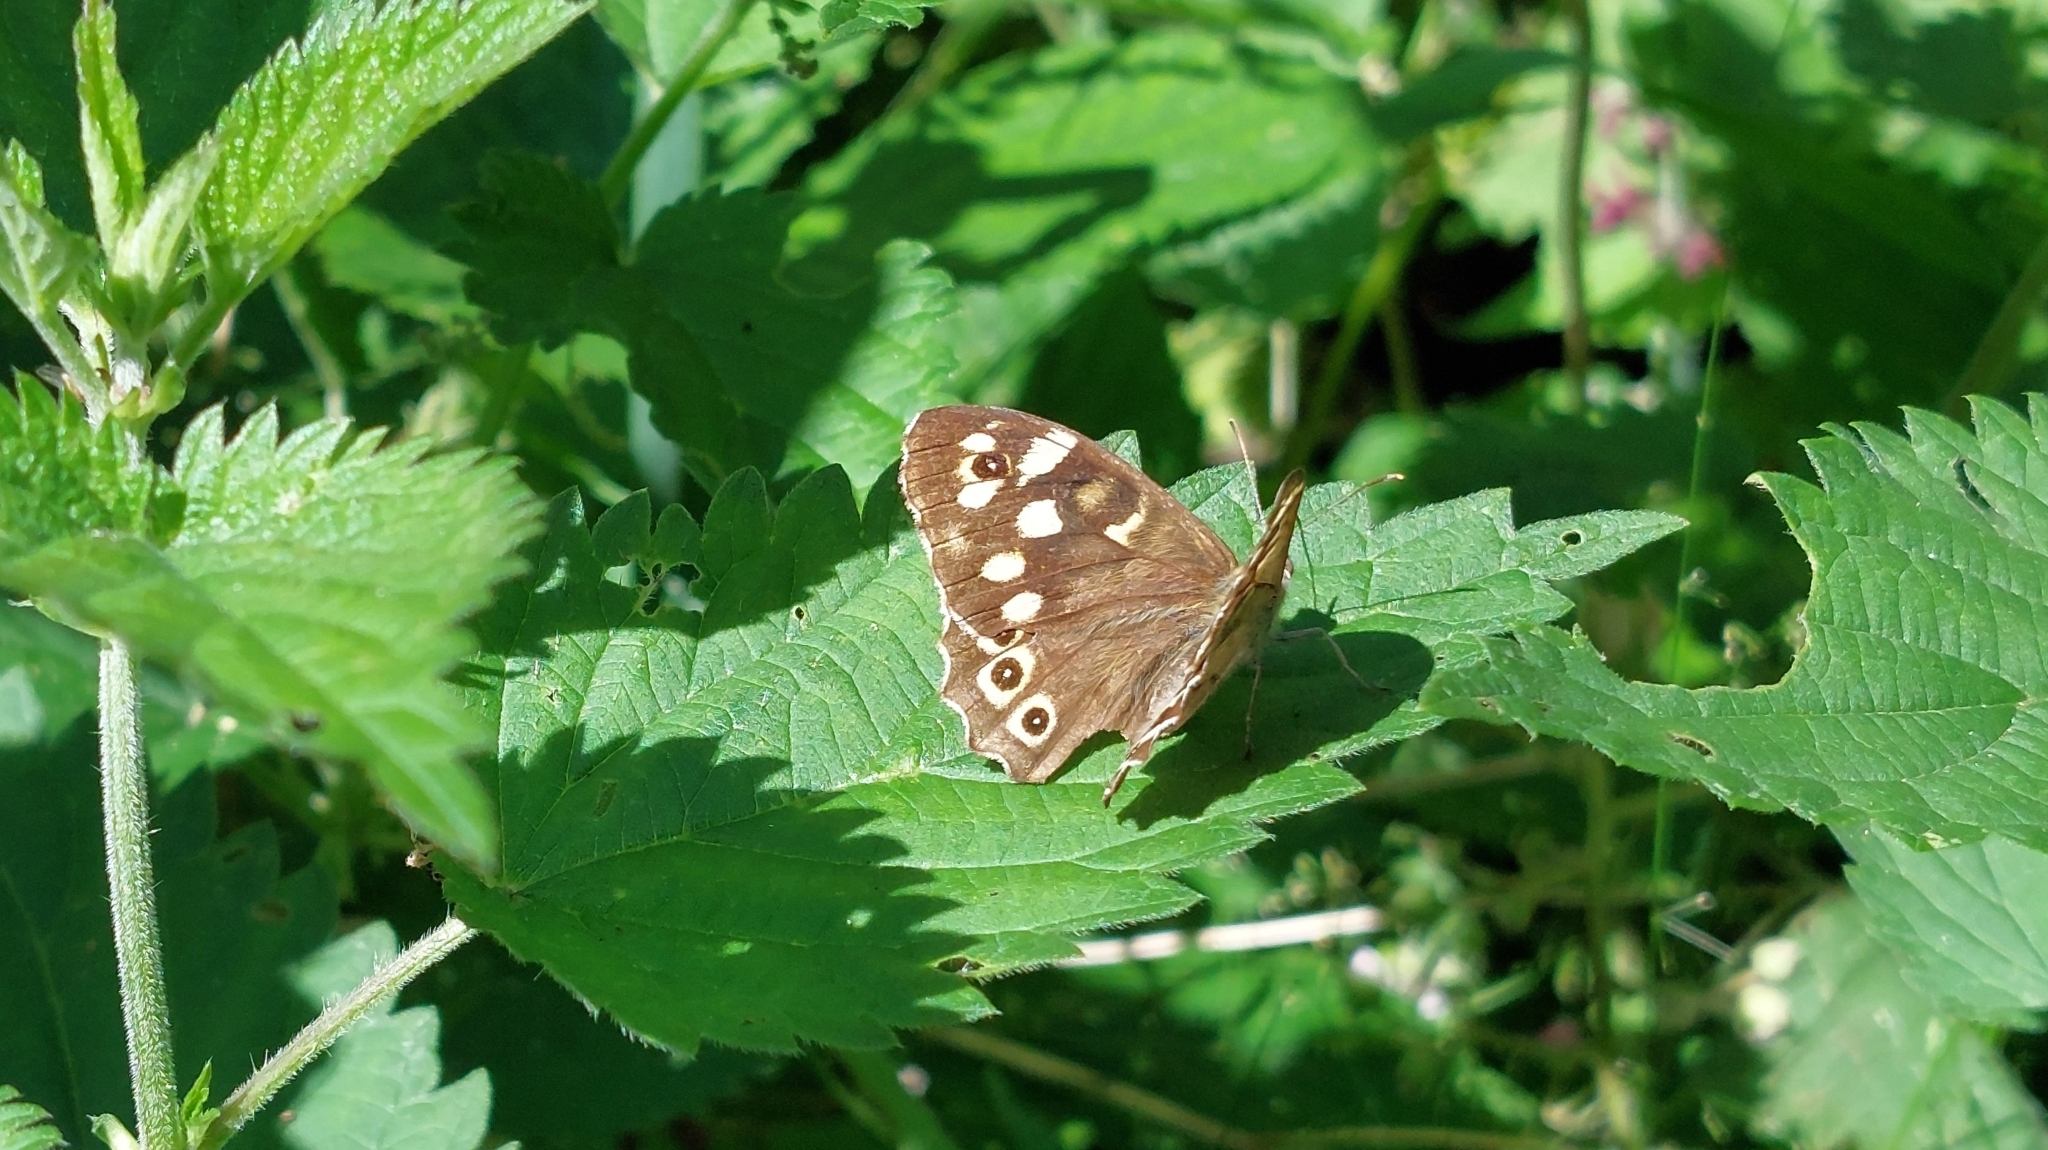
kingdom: Animalia
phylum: Arthropoda
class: Insecta
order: Lepidoptera
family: Nymphalidae
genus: Pararge
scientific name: Pararge aegeria
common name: Speckled wood
